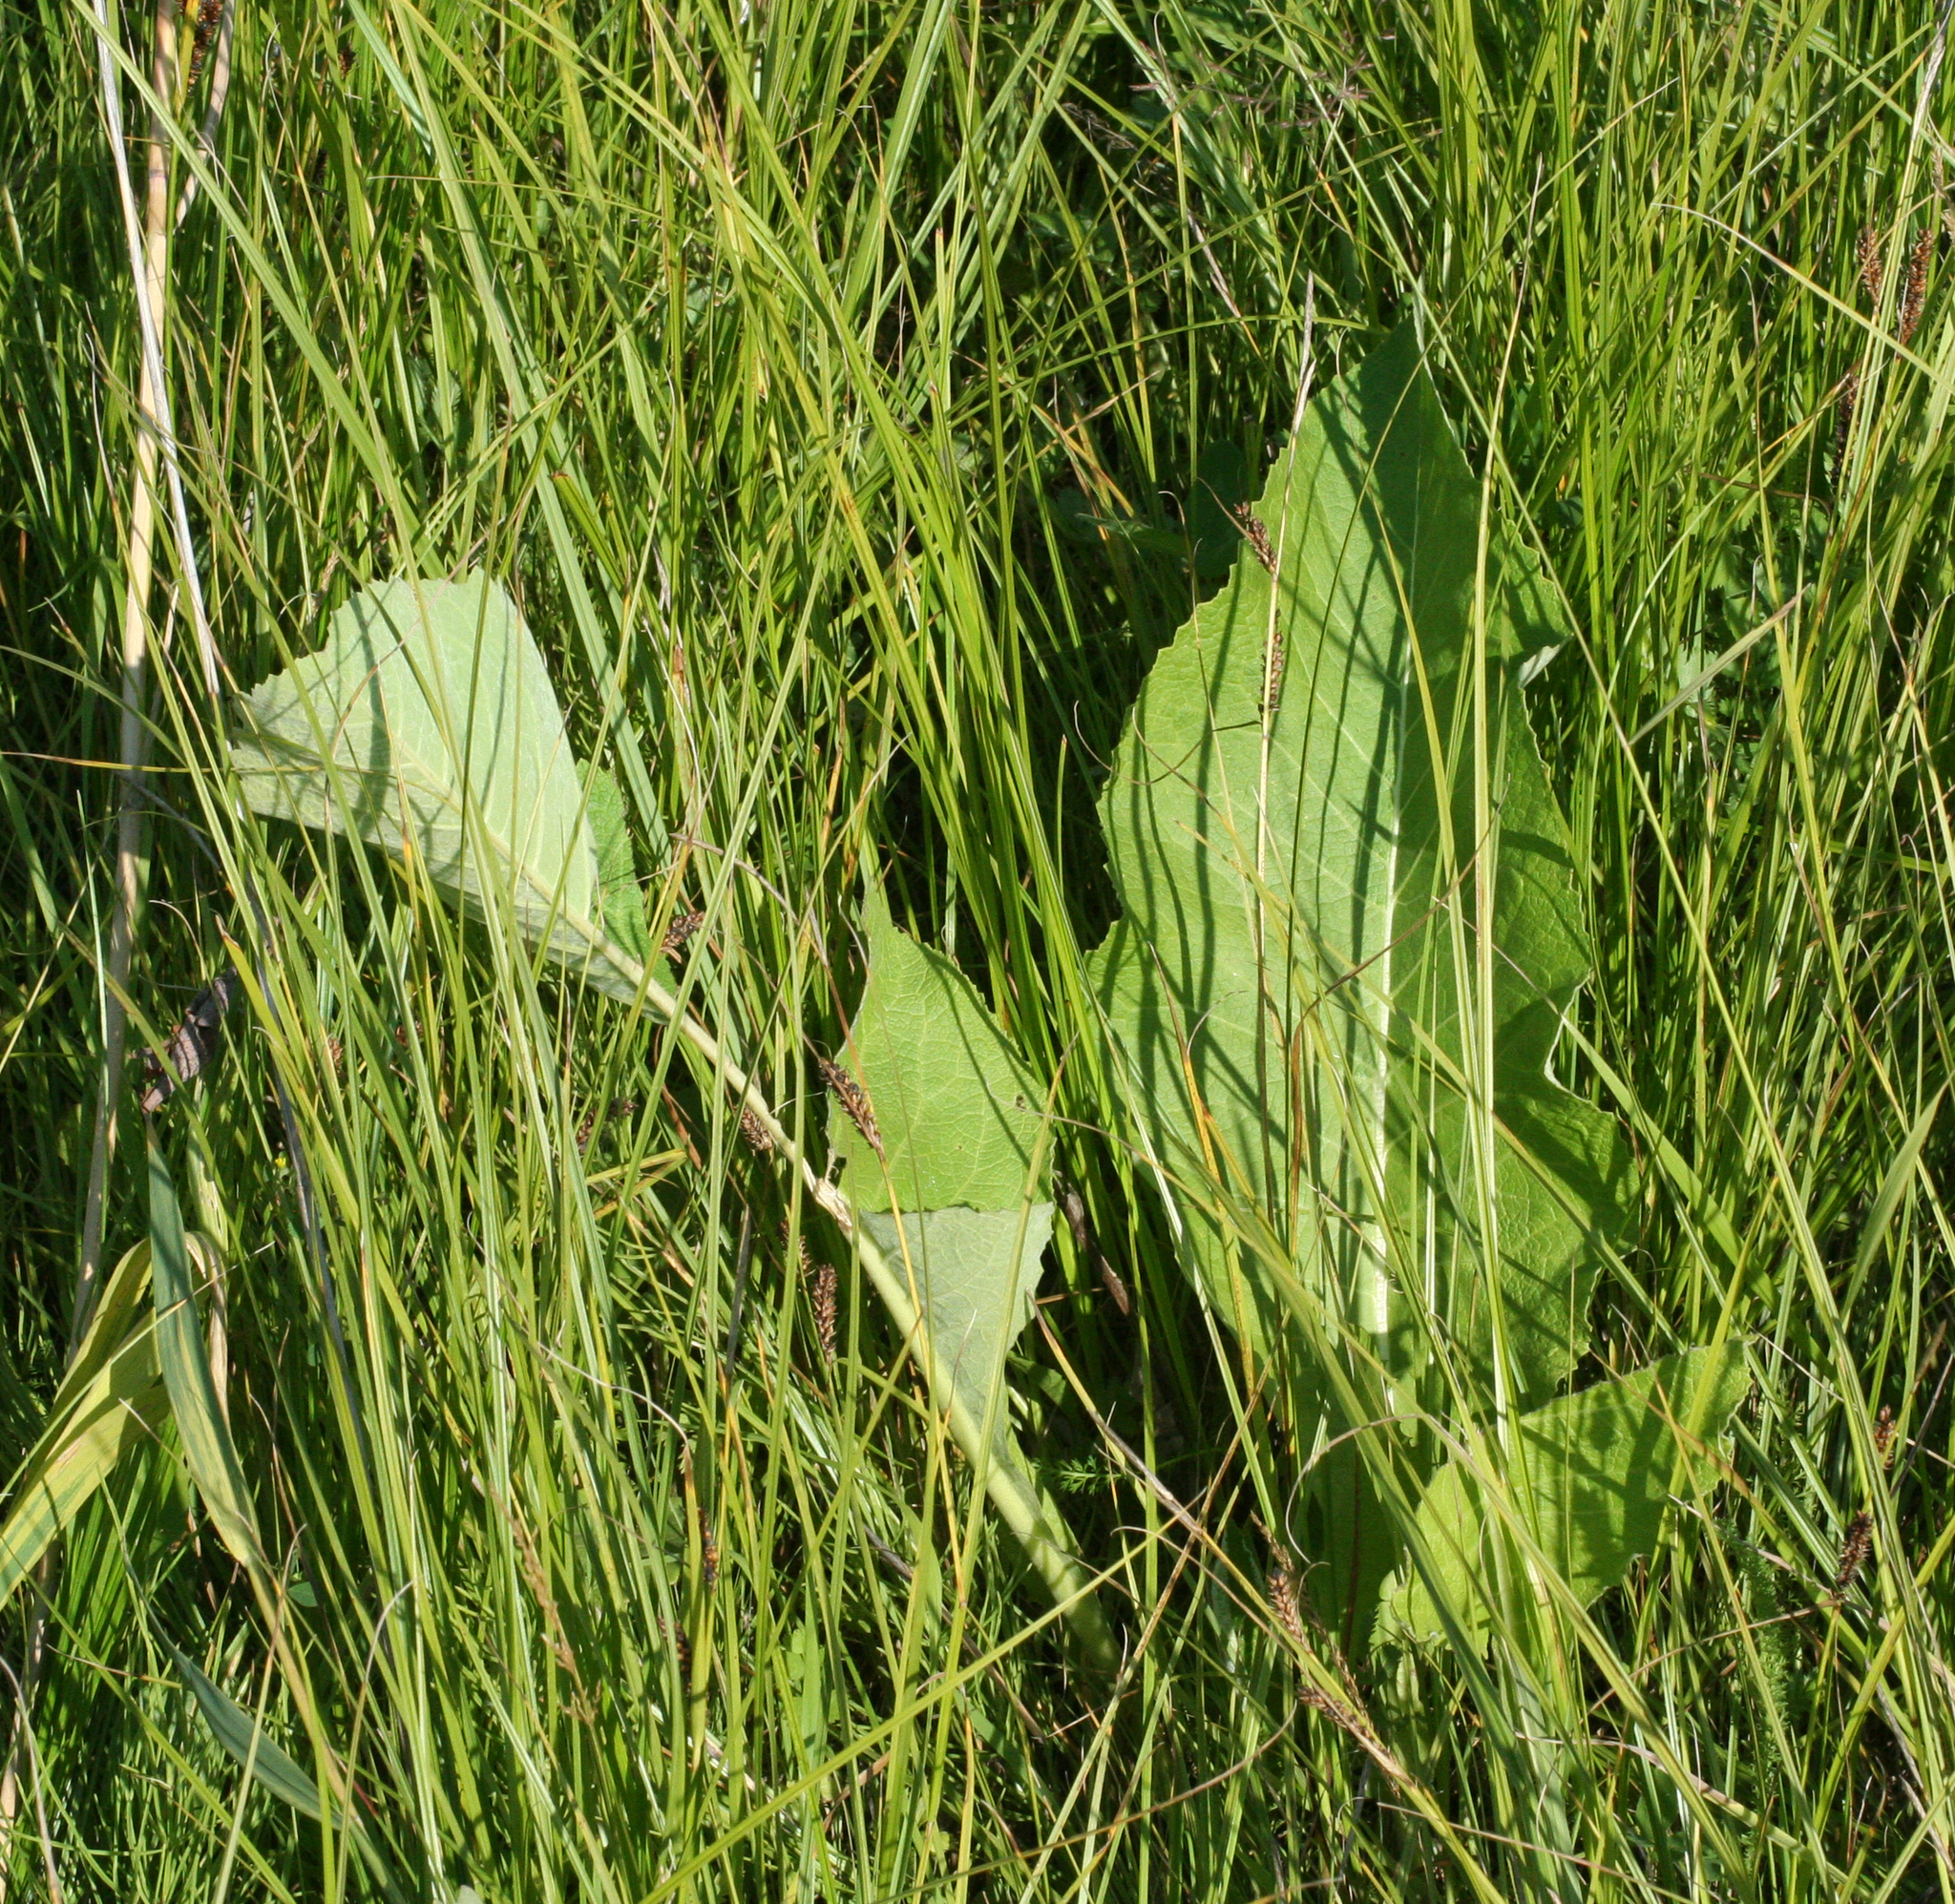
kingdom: Plantae
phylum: Tracheophyta
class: Magnoliopsida
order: Asterales
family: Asteraceae
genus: Inula
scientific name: Inula helenium
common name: Elecampane
